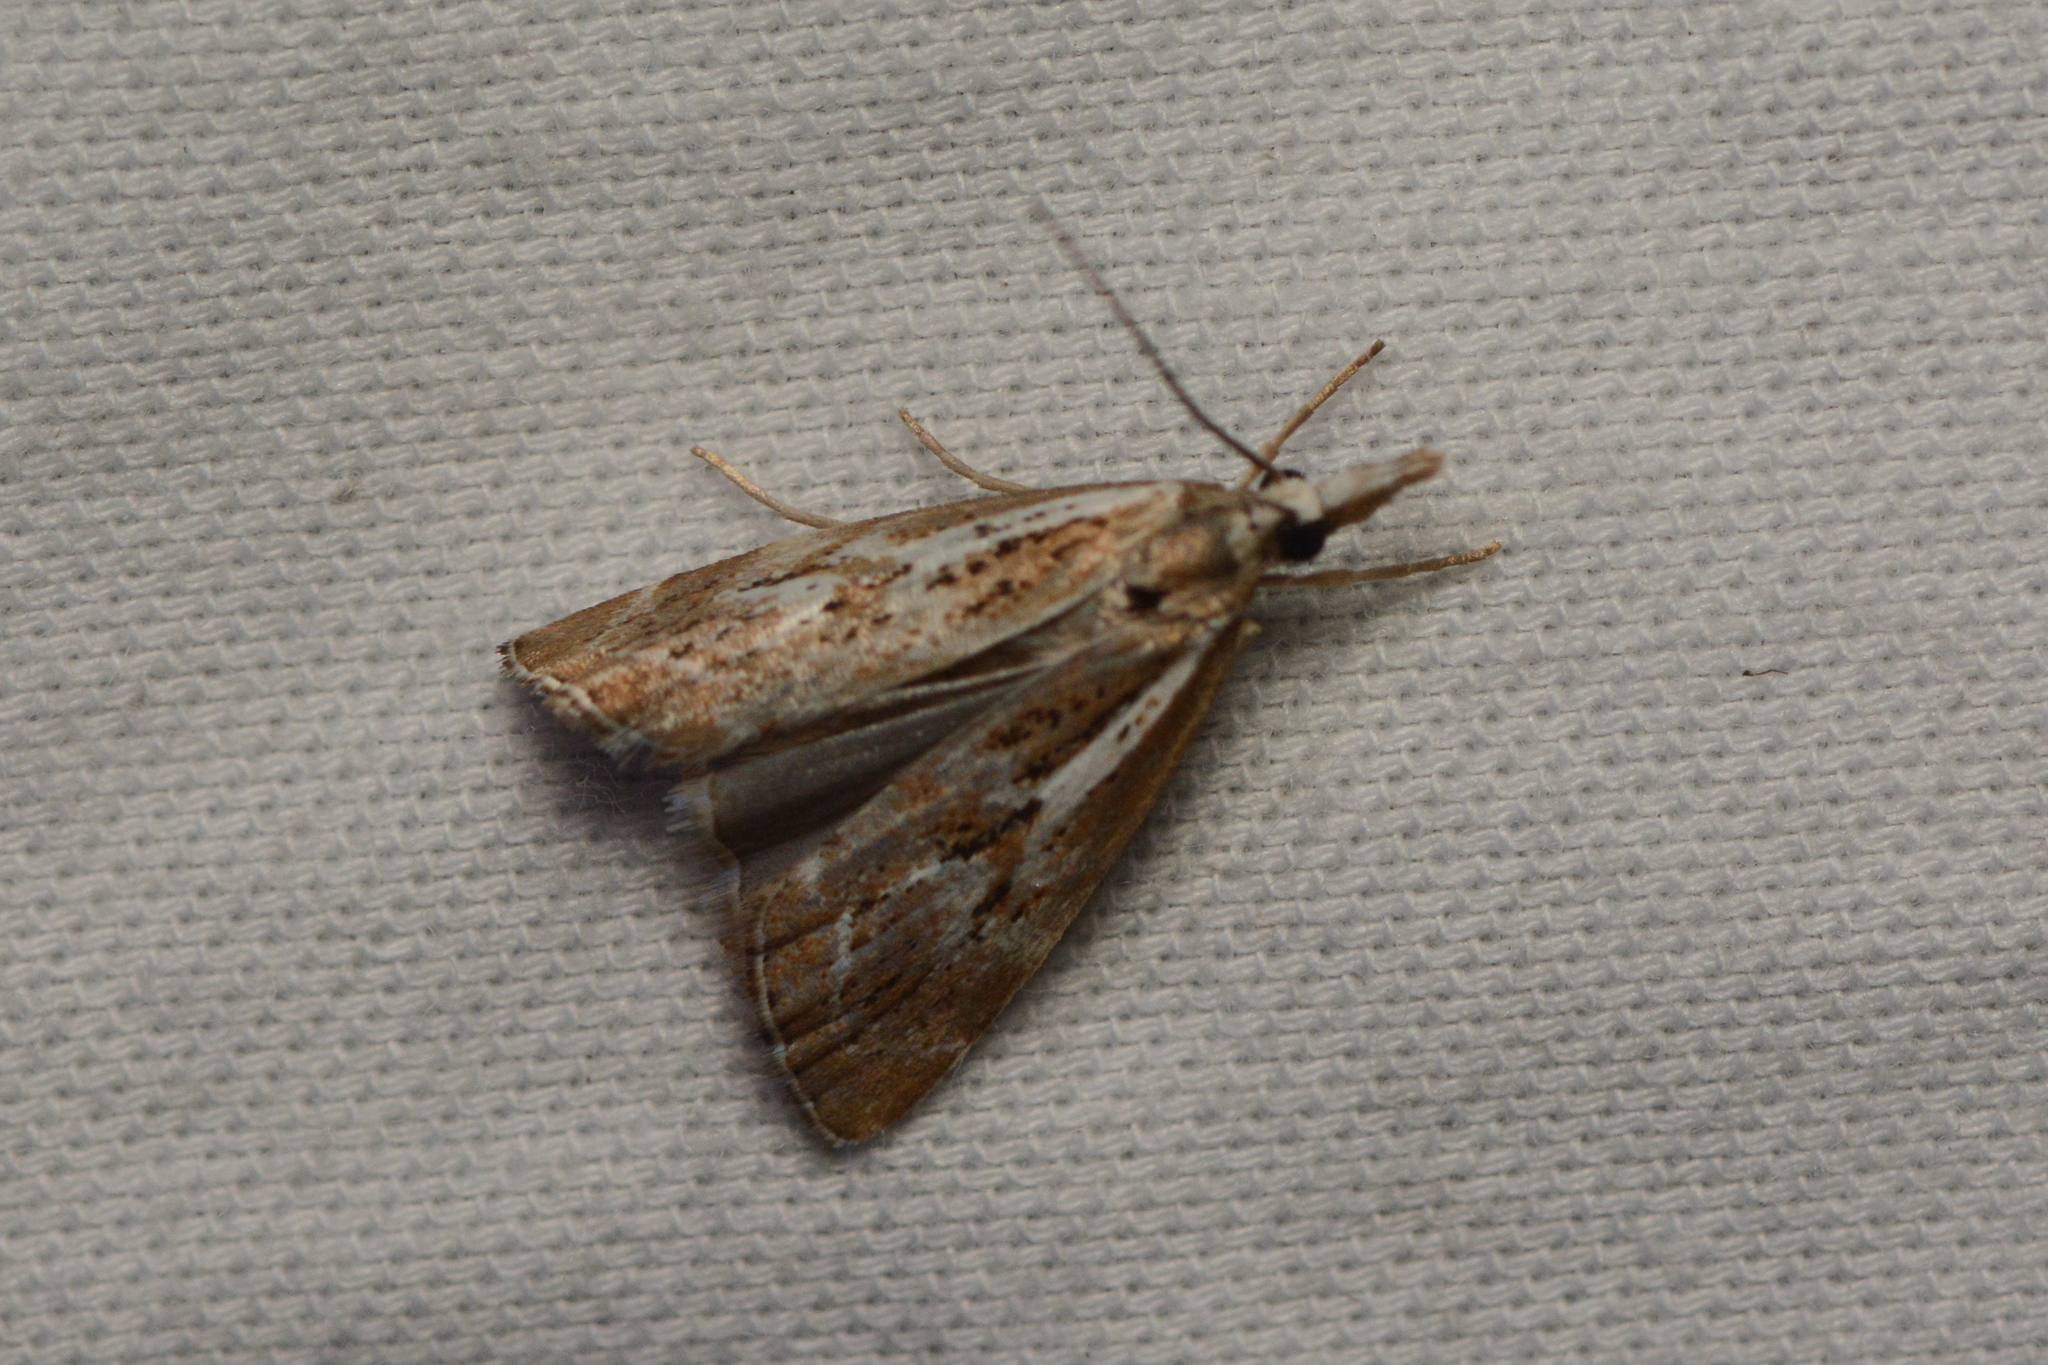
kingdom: Animalia
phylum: Arthropoda
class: Insecta
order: Lepidoptera
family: Crambidae
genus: Catoptria
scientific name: Catoptria oregonicus
